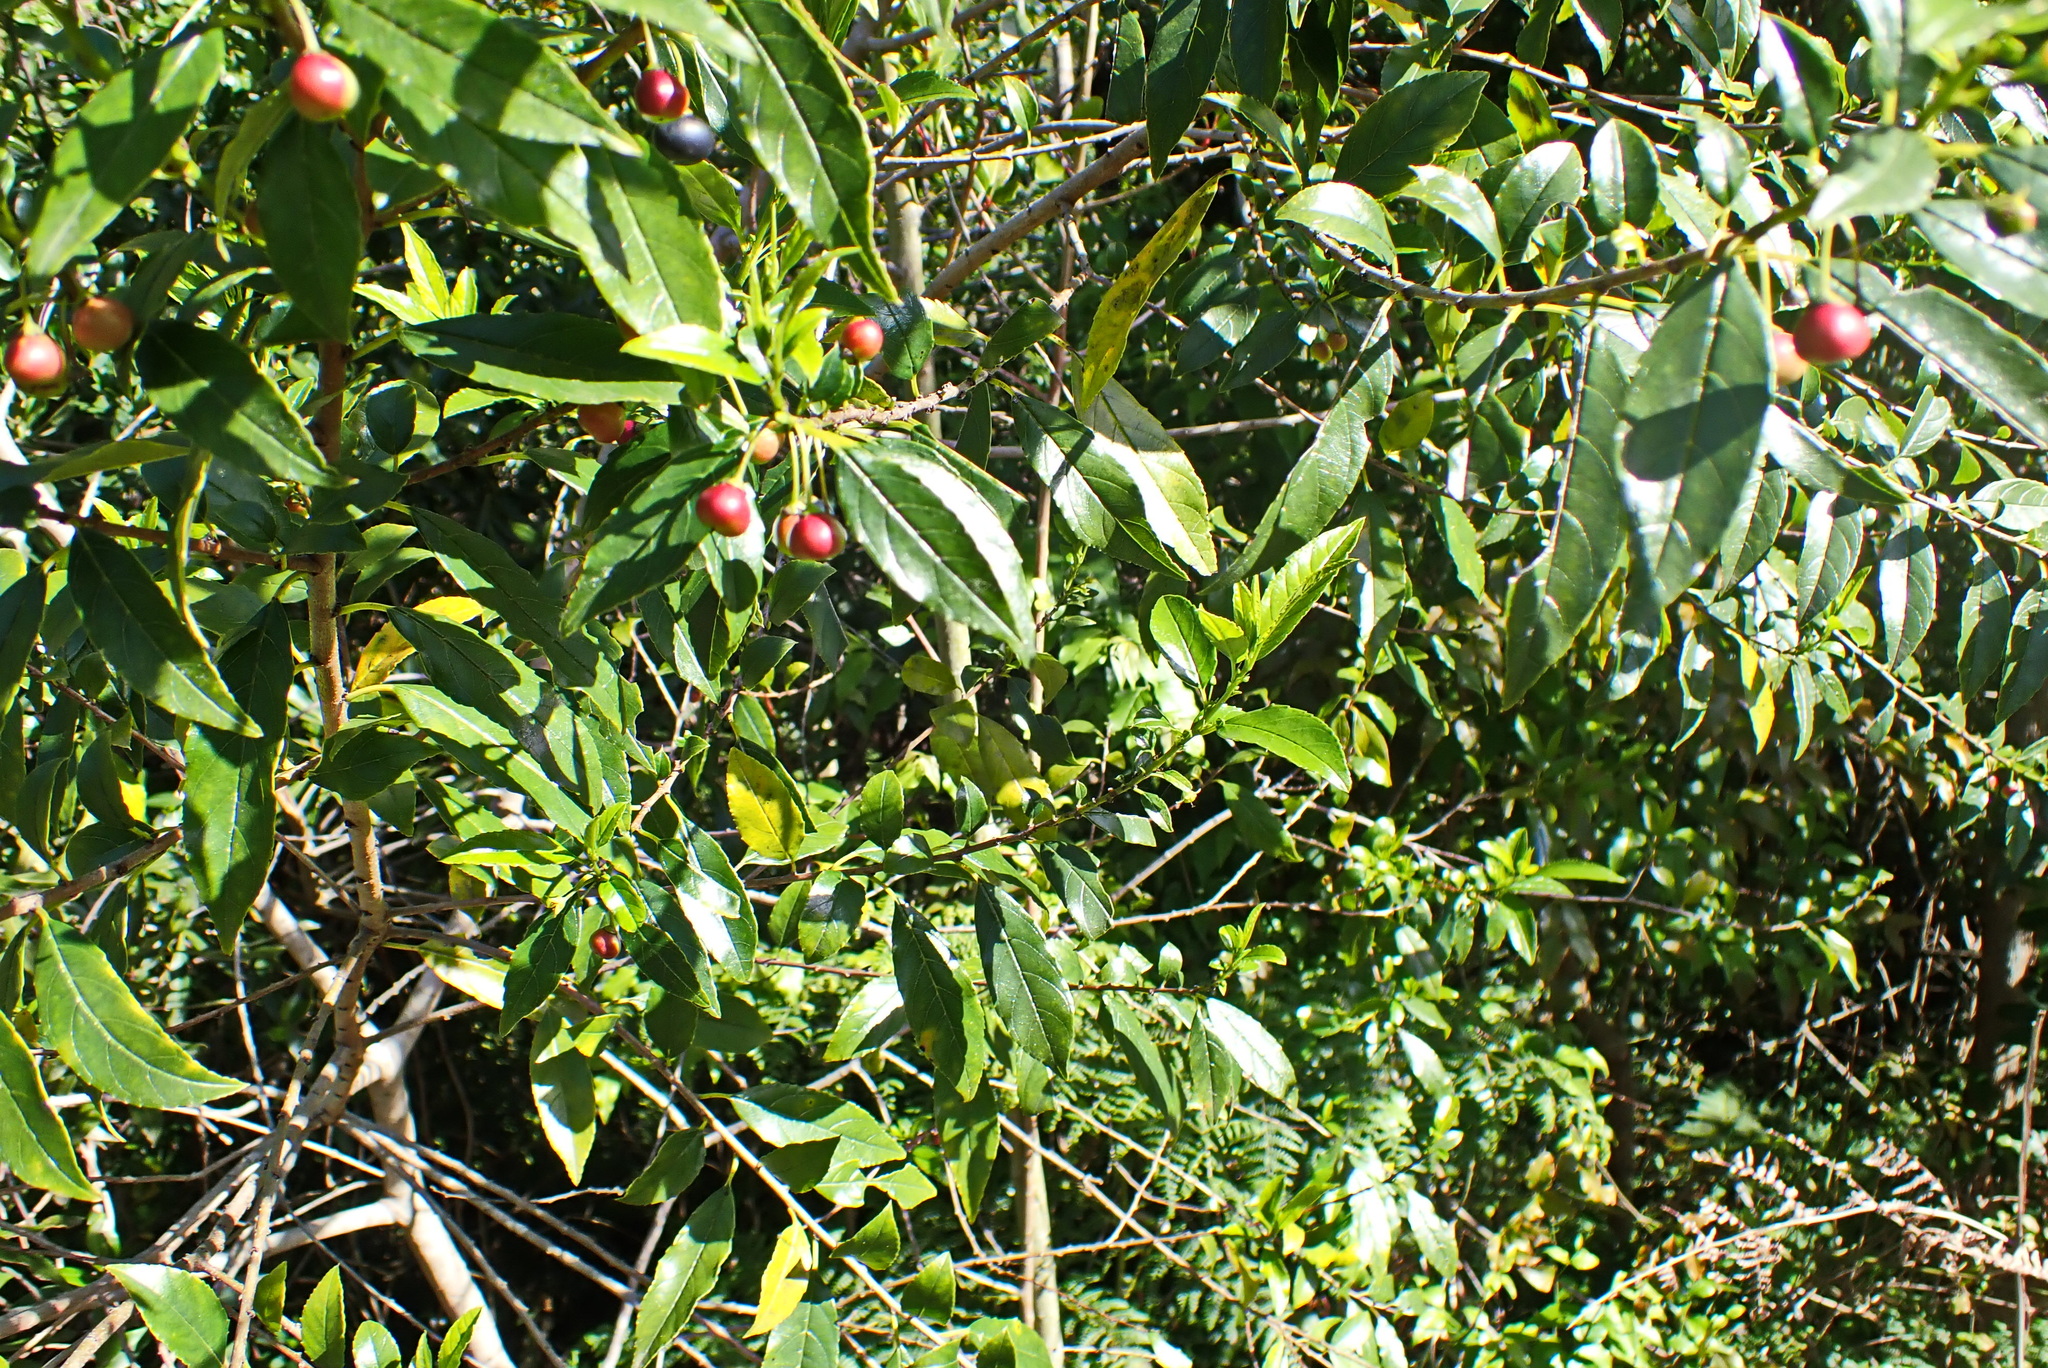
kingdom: Plantae
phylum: Tracheophyta
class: Magnoliopsida
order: Rosales
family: Rhamnaceae
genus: Rhamnus
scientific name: Rhamnus prinoides
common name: Dogwood
